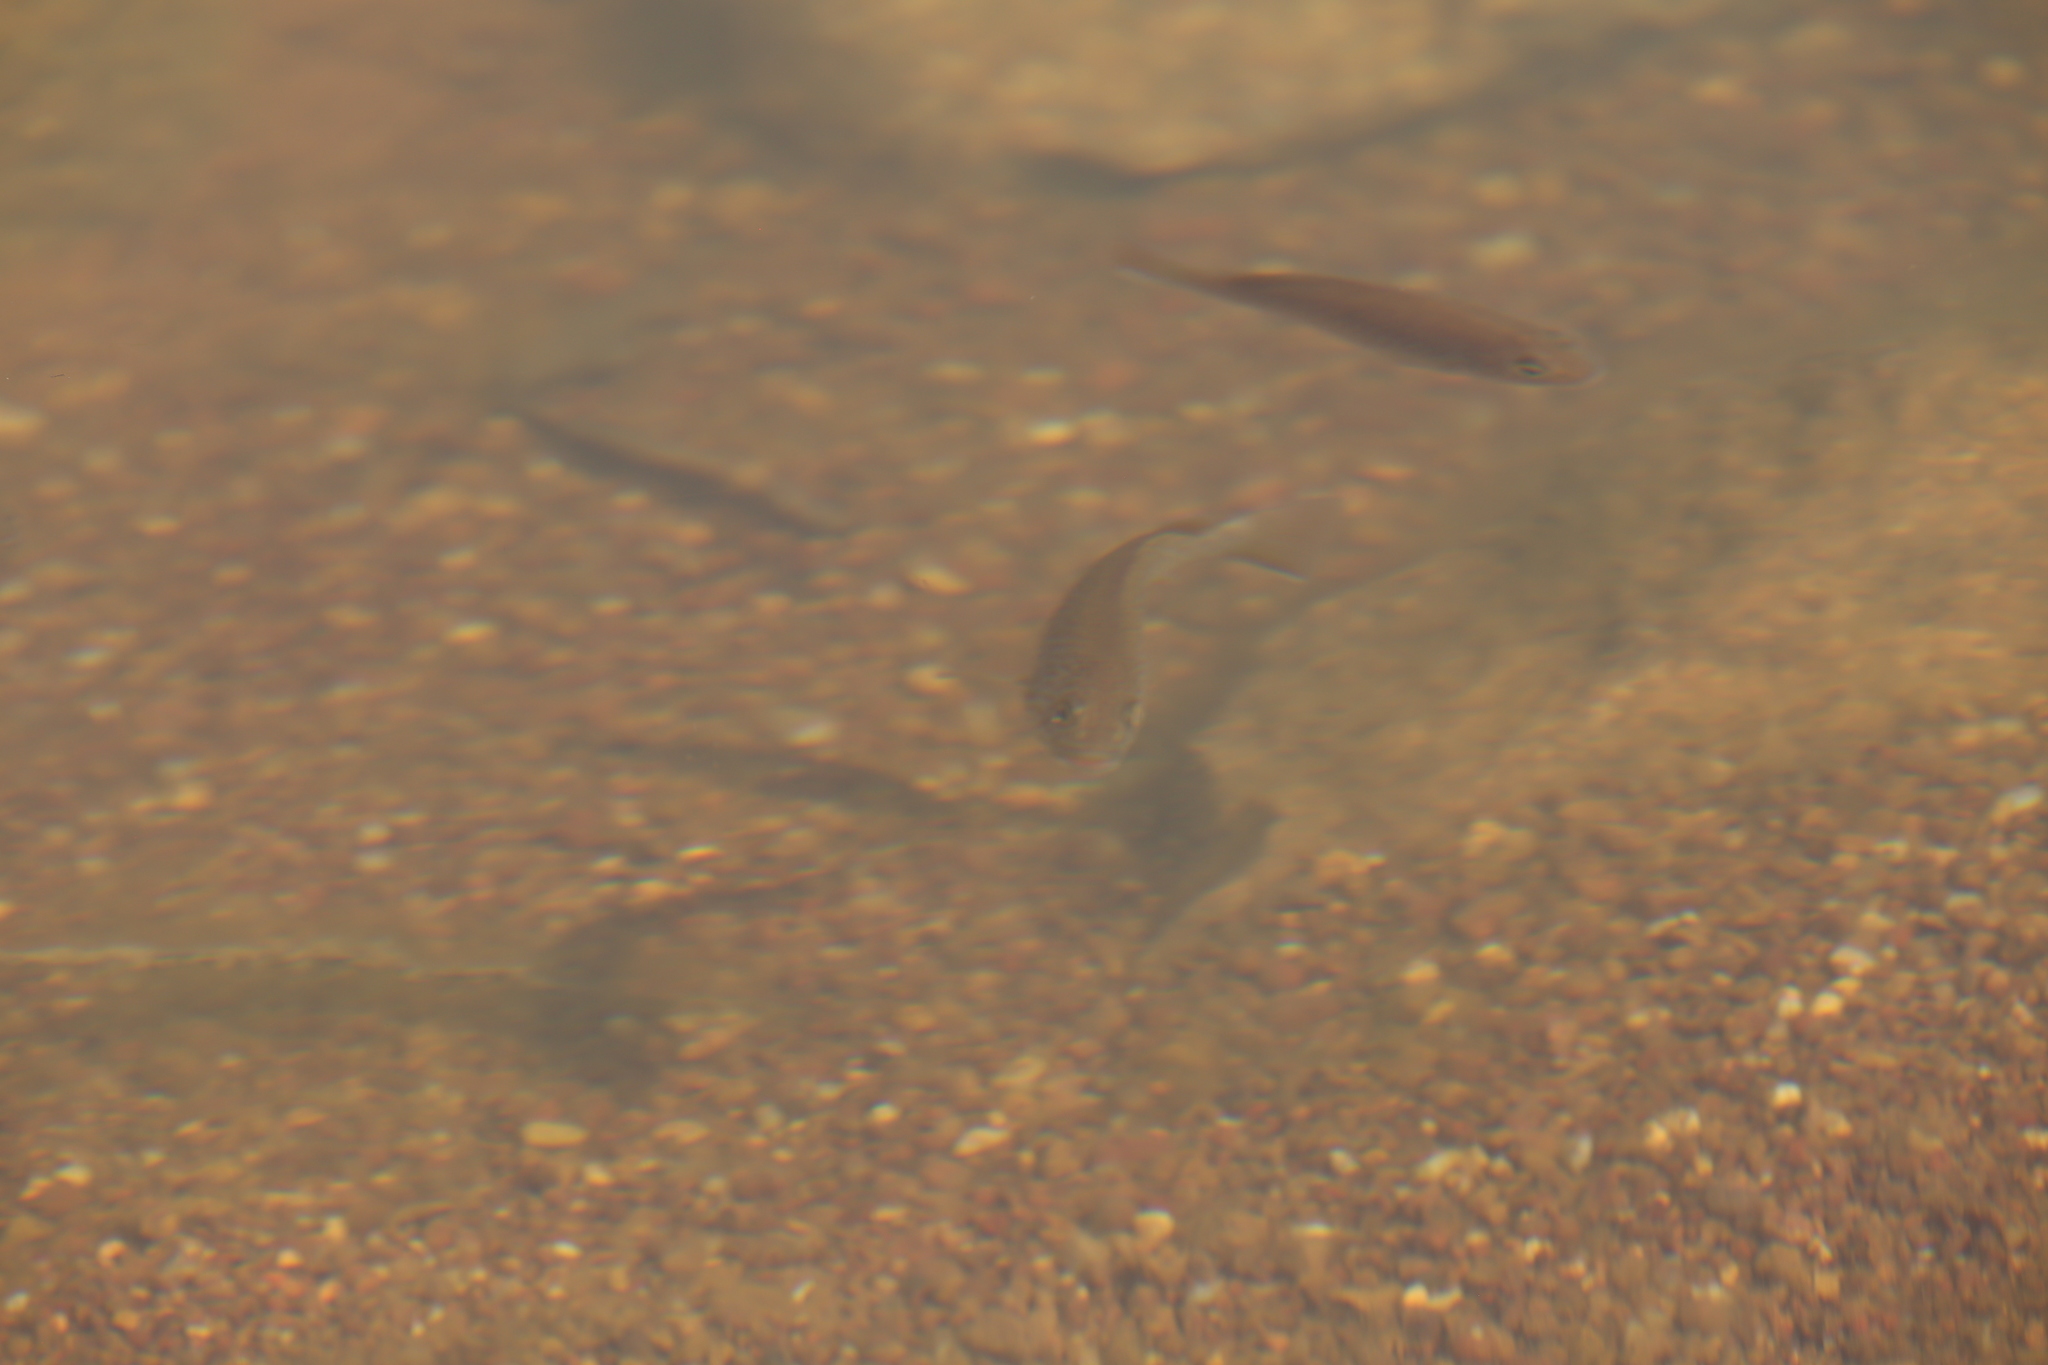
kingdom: Animalia
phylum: Chordata
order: Perciformes
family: Terapontidae
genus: Leiopotherapon
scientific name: Leiopotherapon unicolor
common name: Bobby
